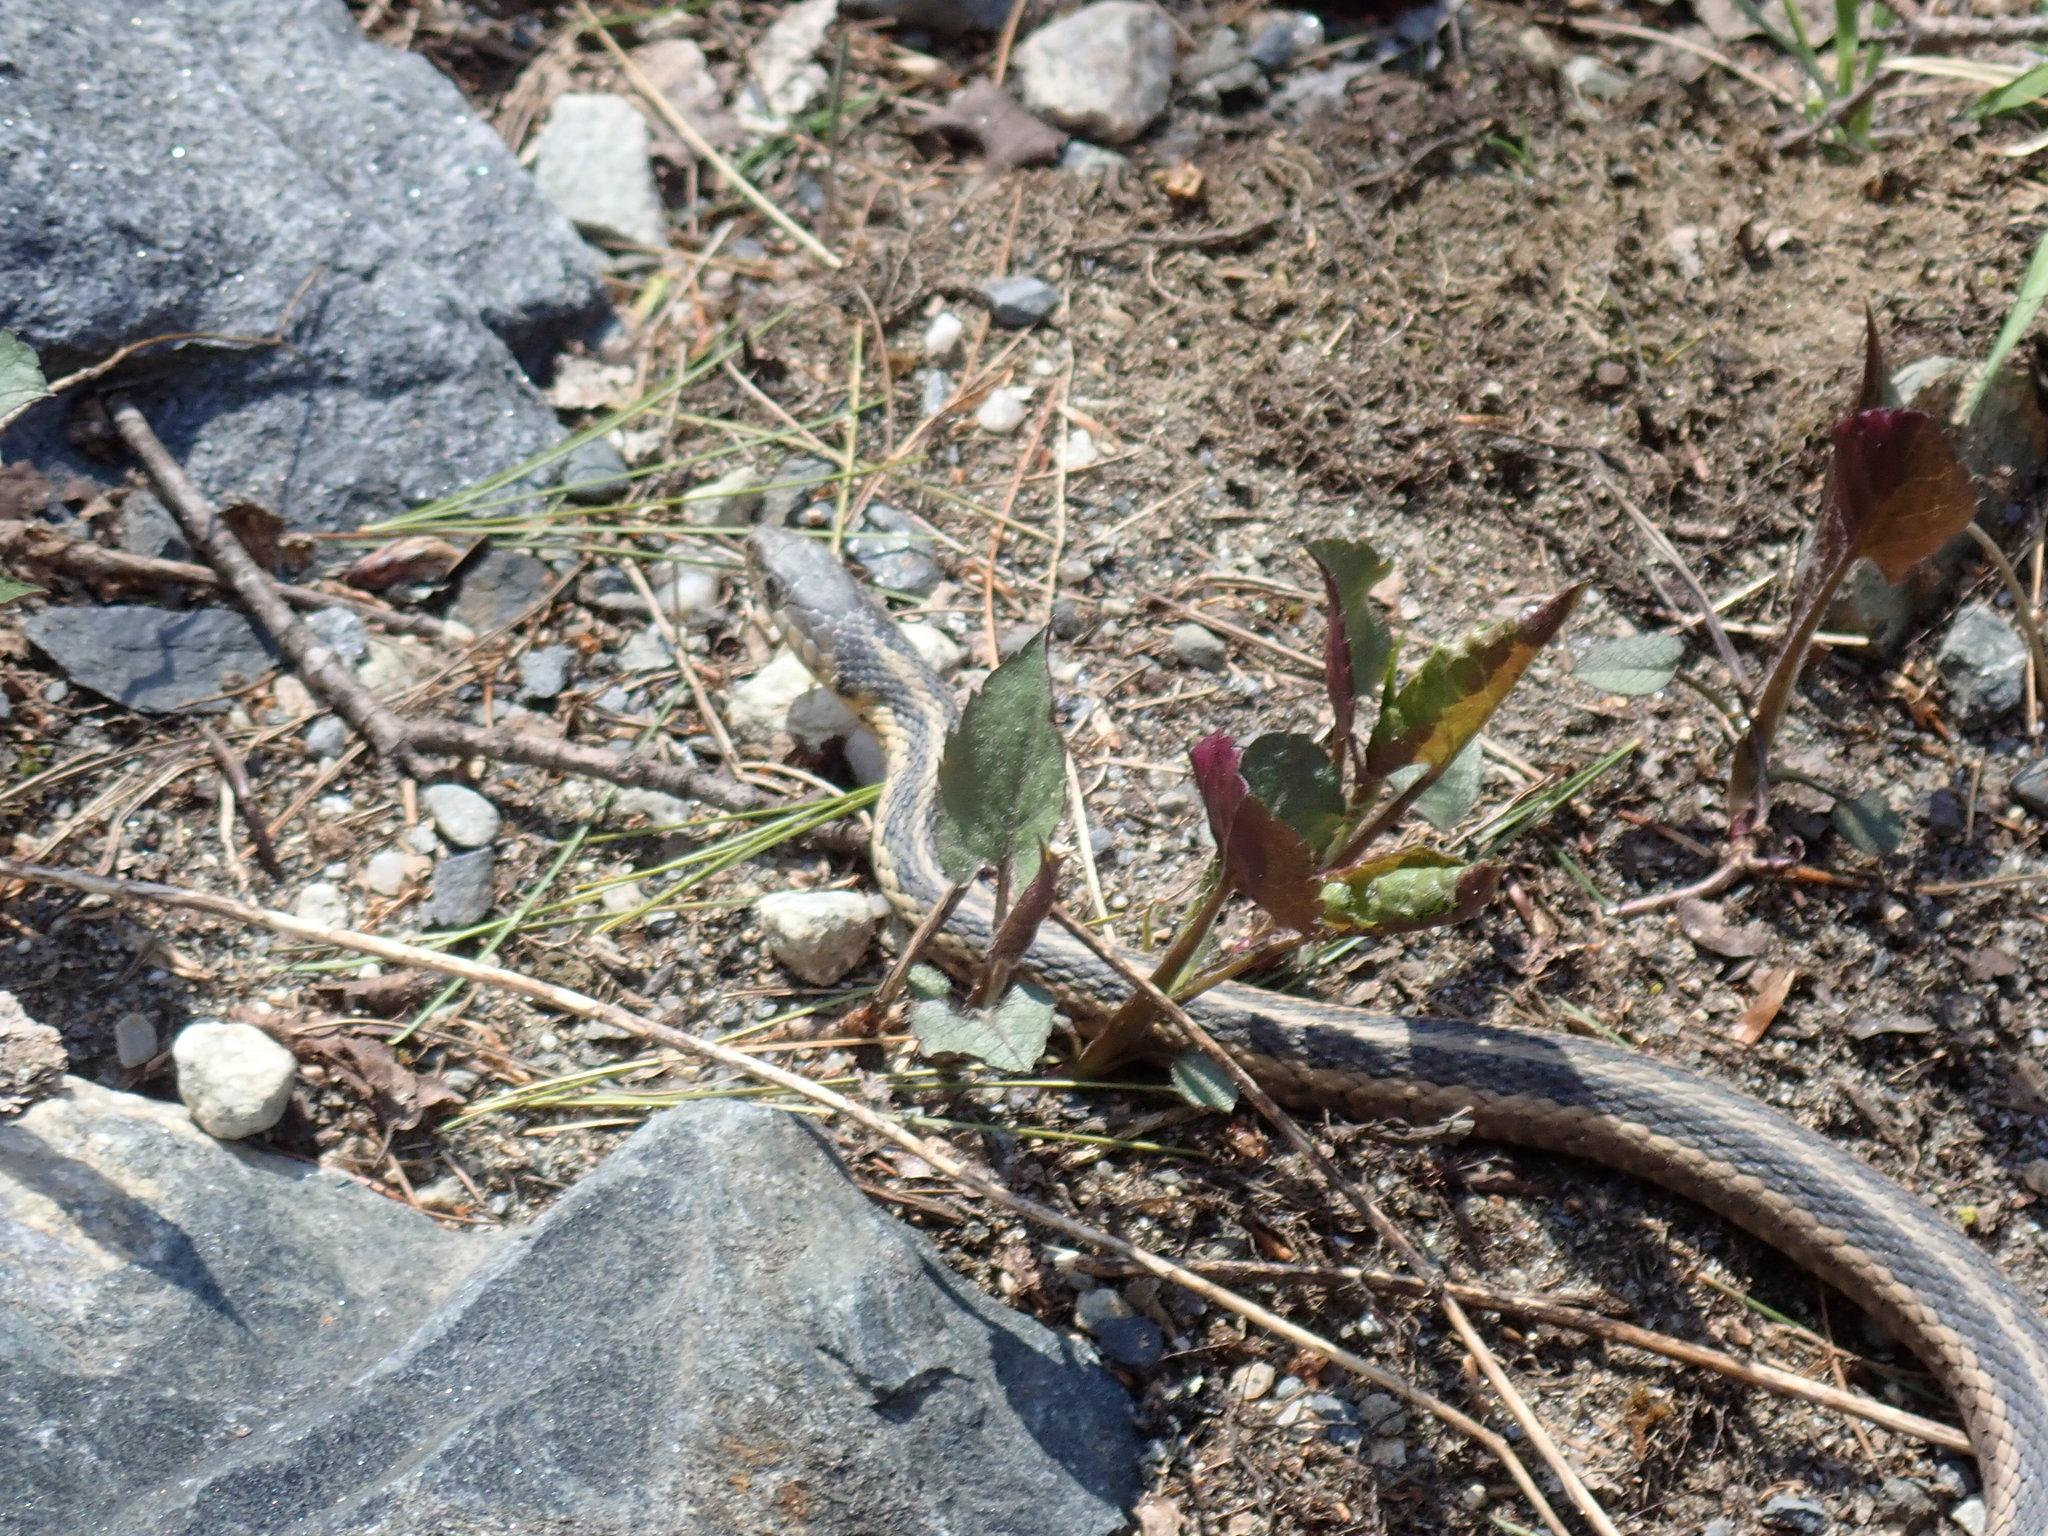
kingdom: Animalia
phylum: Chordata
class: Squamata
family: Colubridae
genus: Thamnophis
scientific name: Thamnophis sirtalis
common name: Common garter snake
